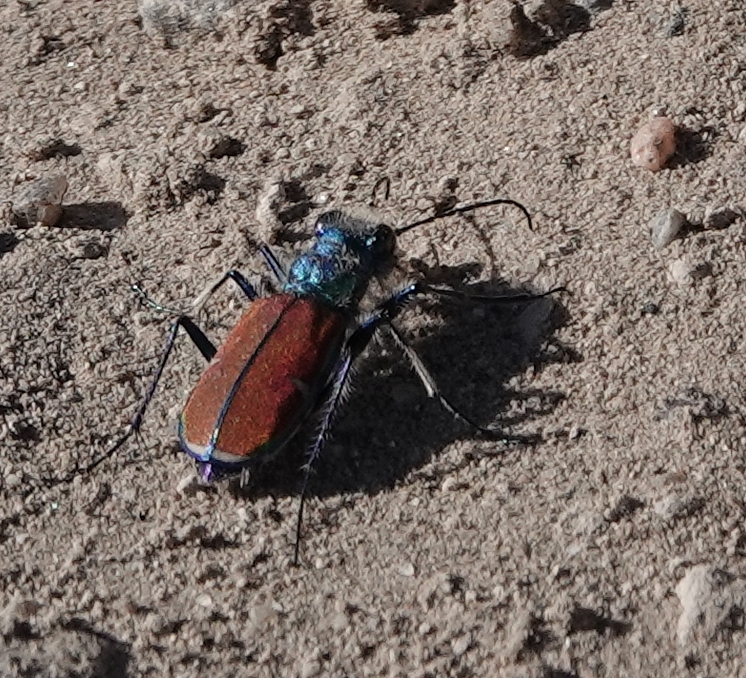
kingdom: Animalia
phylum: Arthropoda
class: Insecta
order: Coleoptera
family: Carabidae
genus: Cicindela
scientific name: Cicindela splendida
